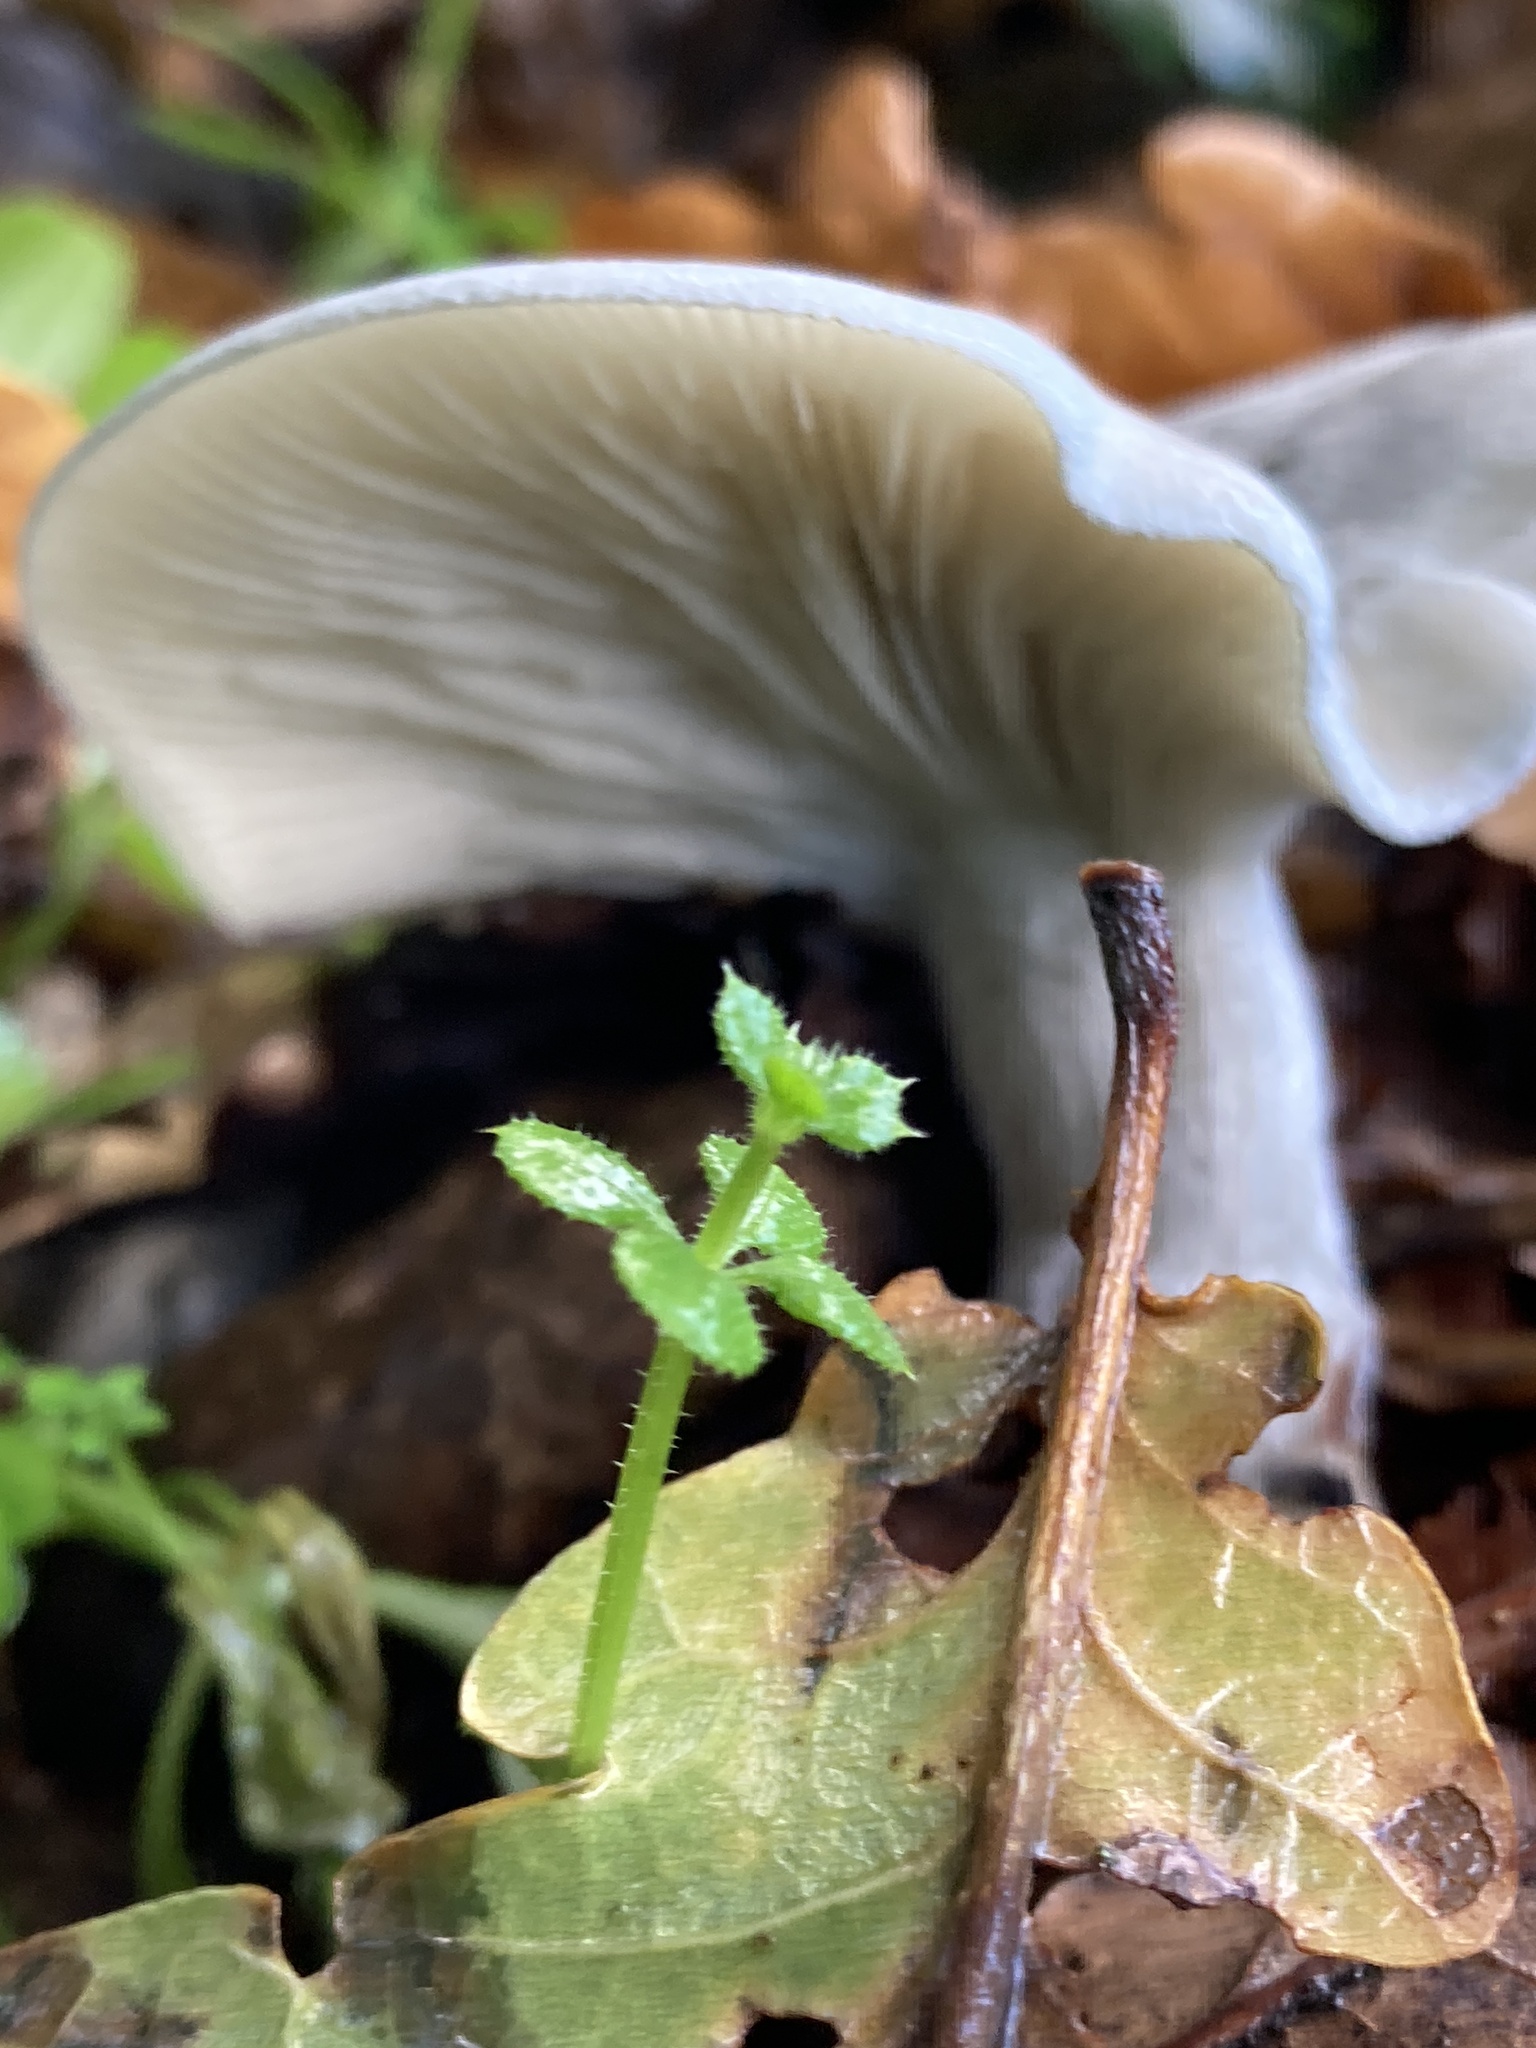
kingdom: Fungi
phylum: Basidiomycota
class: Agaricomycetes
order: Agaricales
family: Tricholomataceae
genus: Clitocybe
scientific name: Clitocybe nebularis
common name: Clouded agaric
